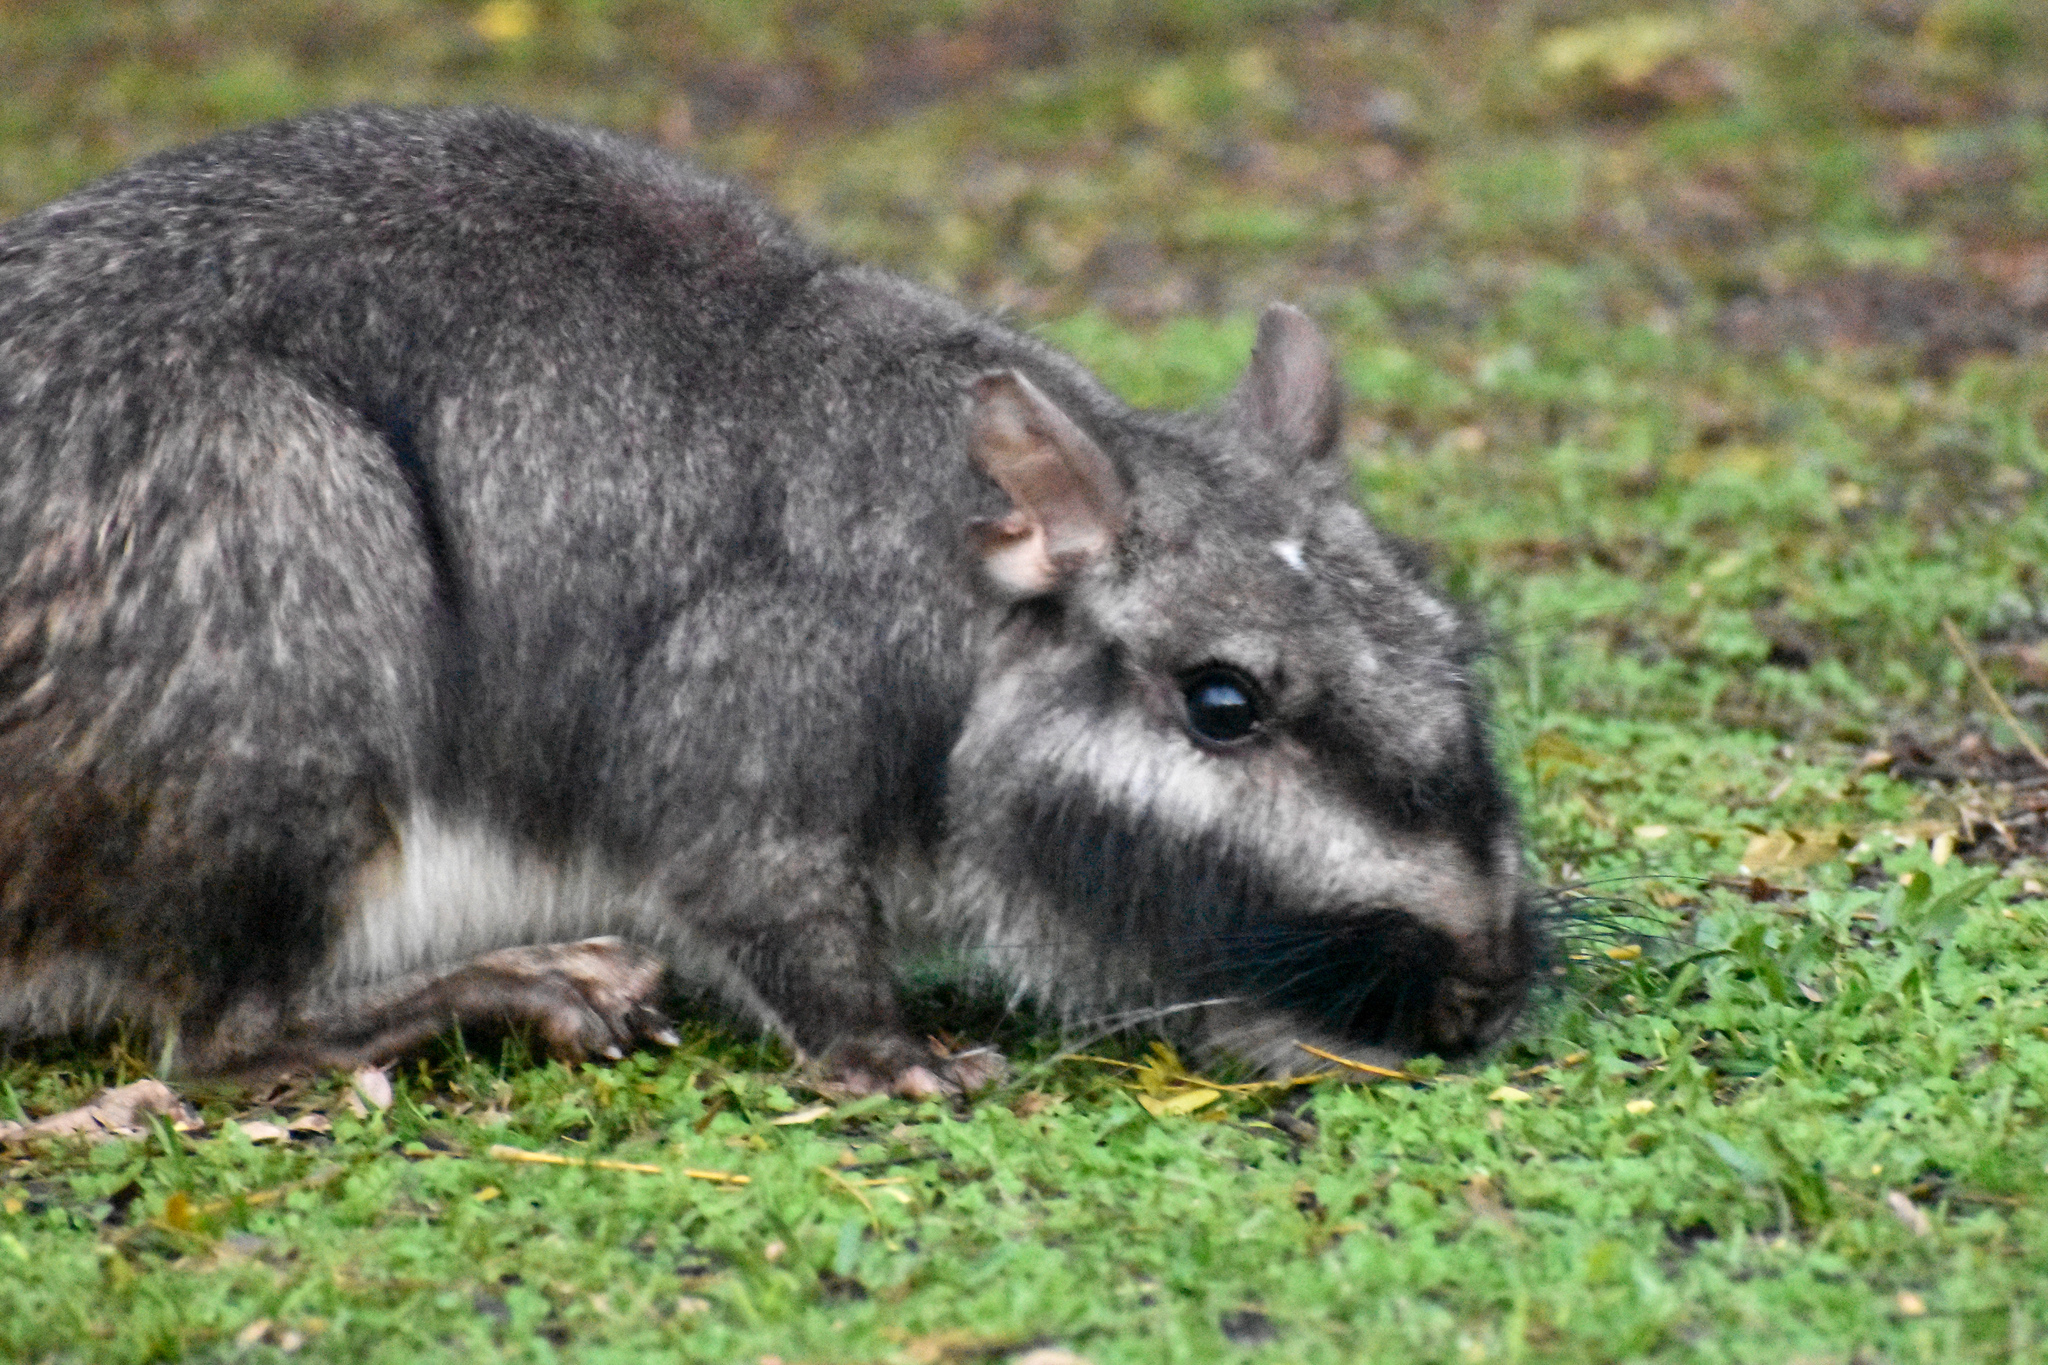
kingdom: Animalia
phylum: Chordata
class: Mammalia
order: Rodentia
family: Chinchillidae
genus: Lagostomus
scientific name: Lagostomus maximus
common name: Plains viscacha
